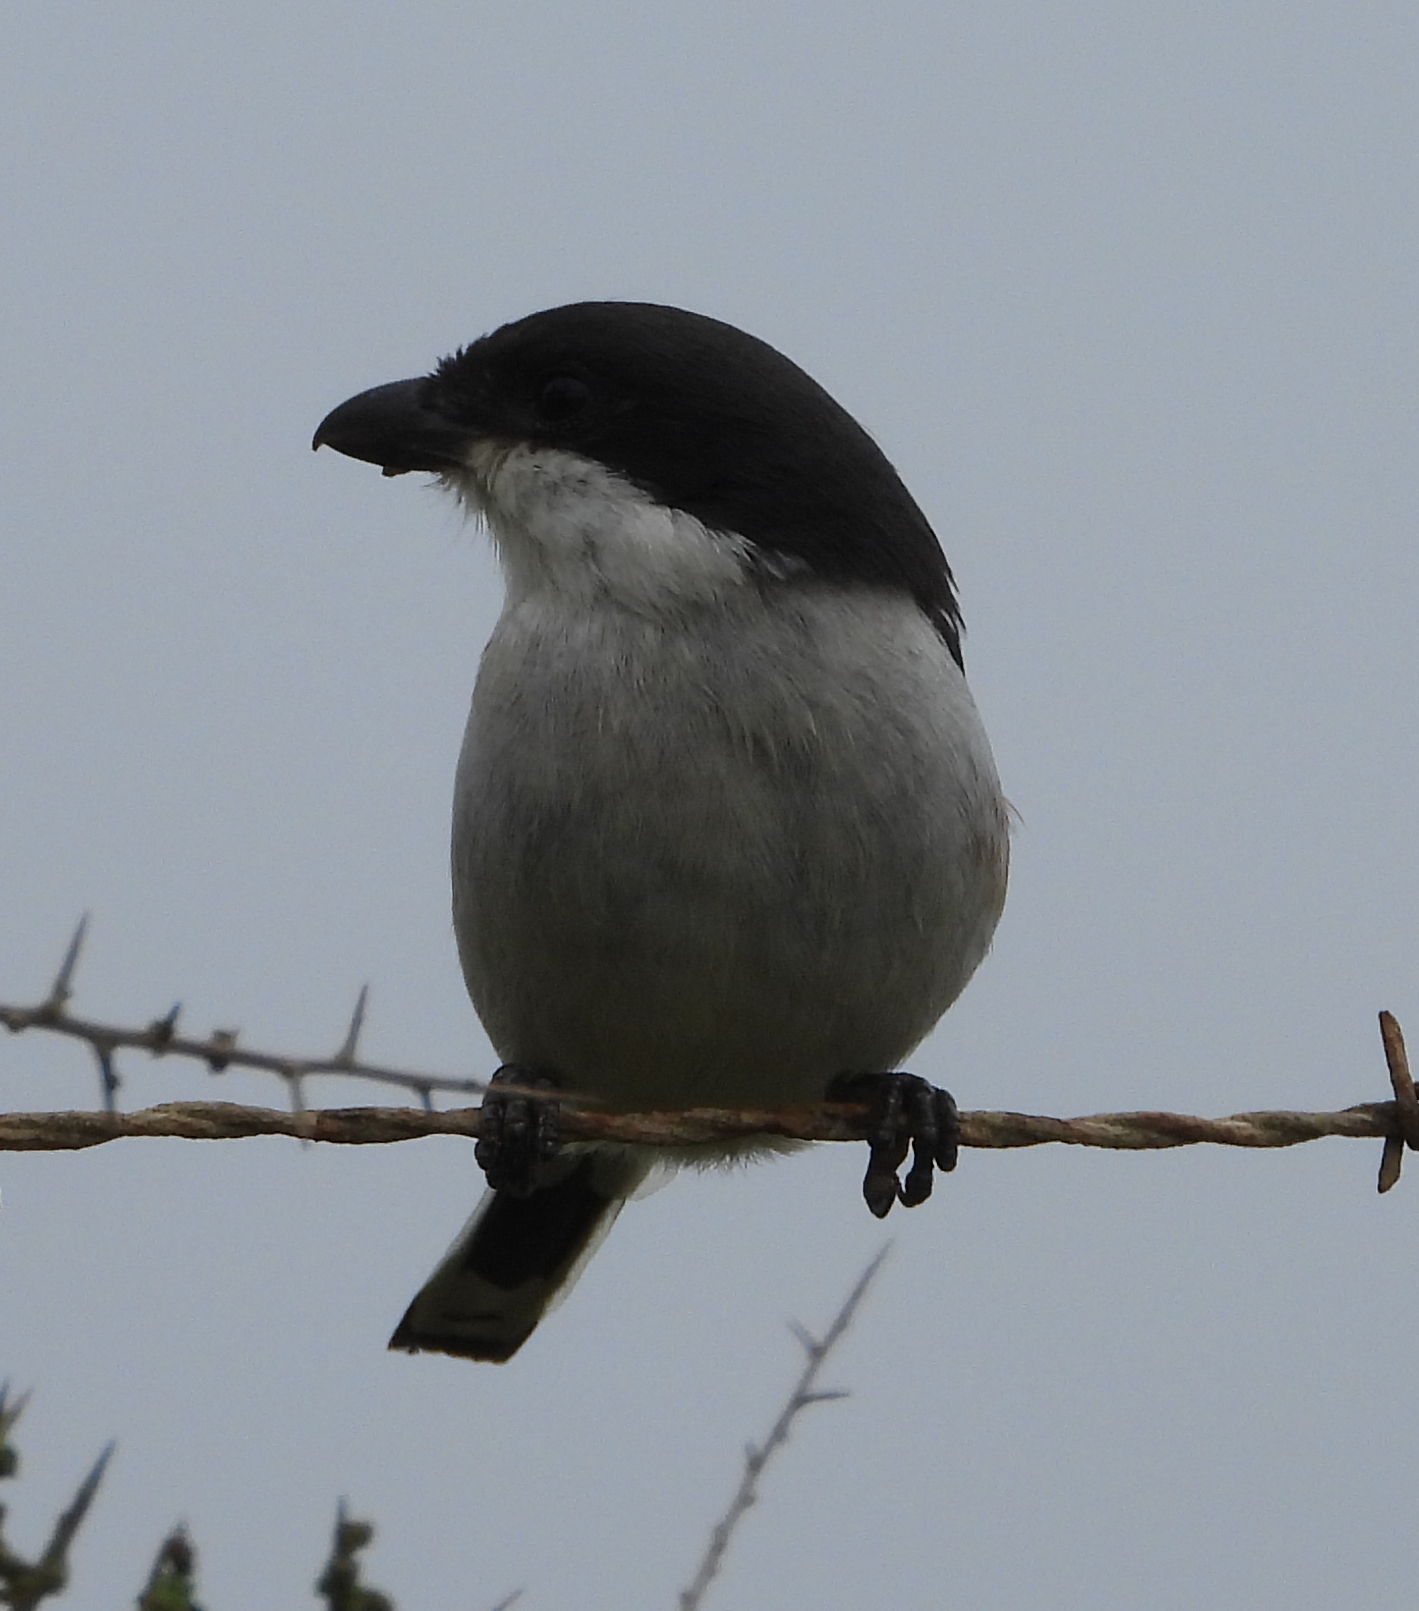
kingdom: Animalia
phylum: Chordata
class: Aves
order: Passeriformes
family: Laniidae
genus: Lanius
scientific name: Lanius collaris
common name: Southern fiscal
